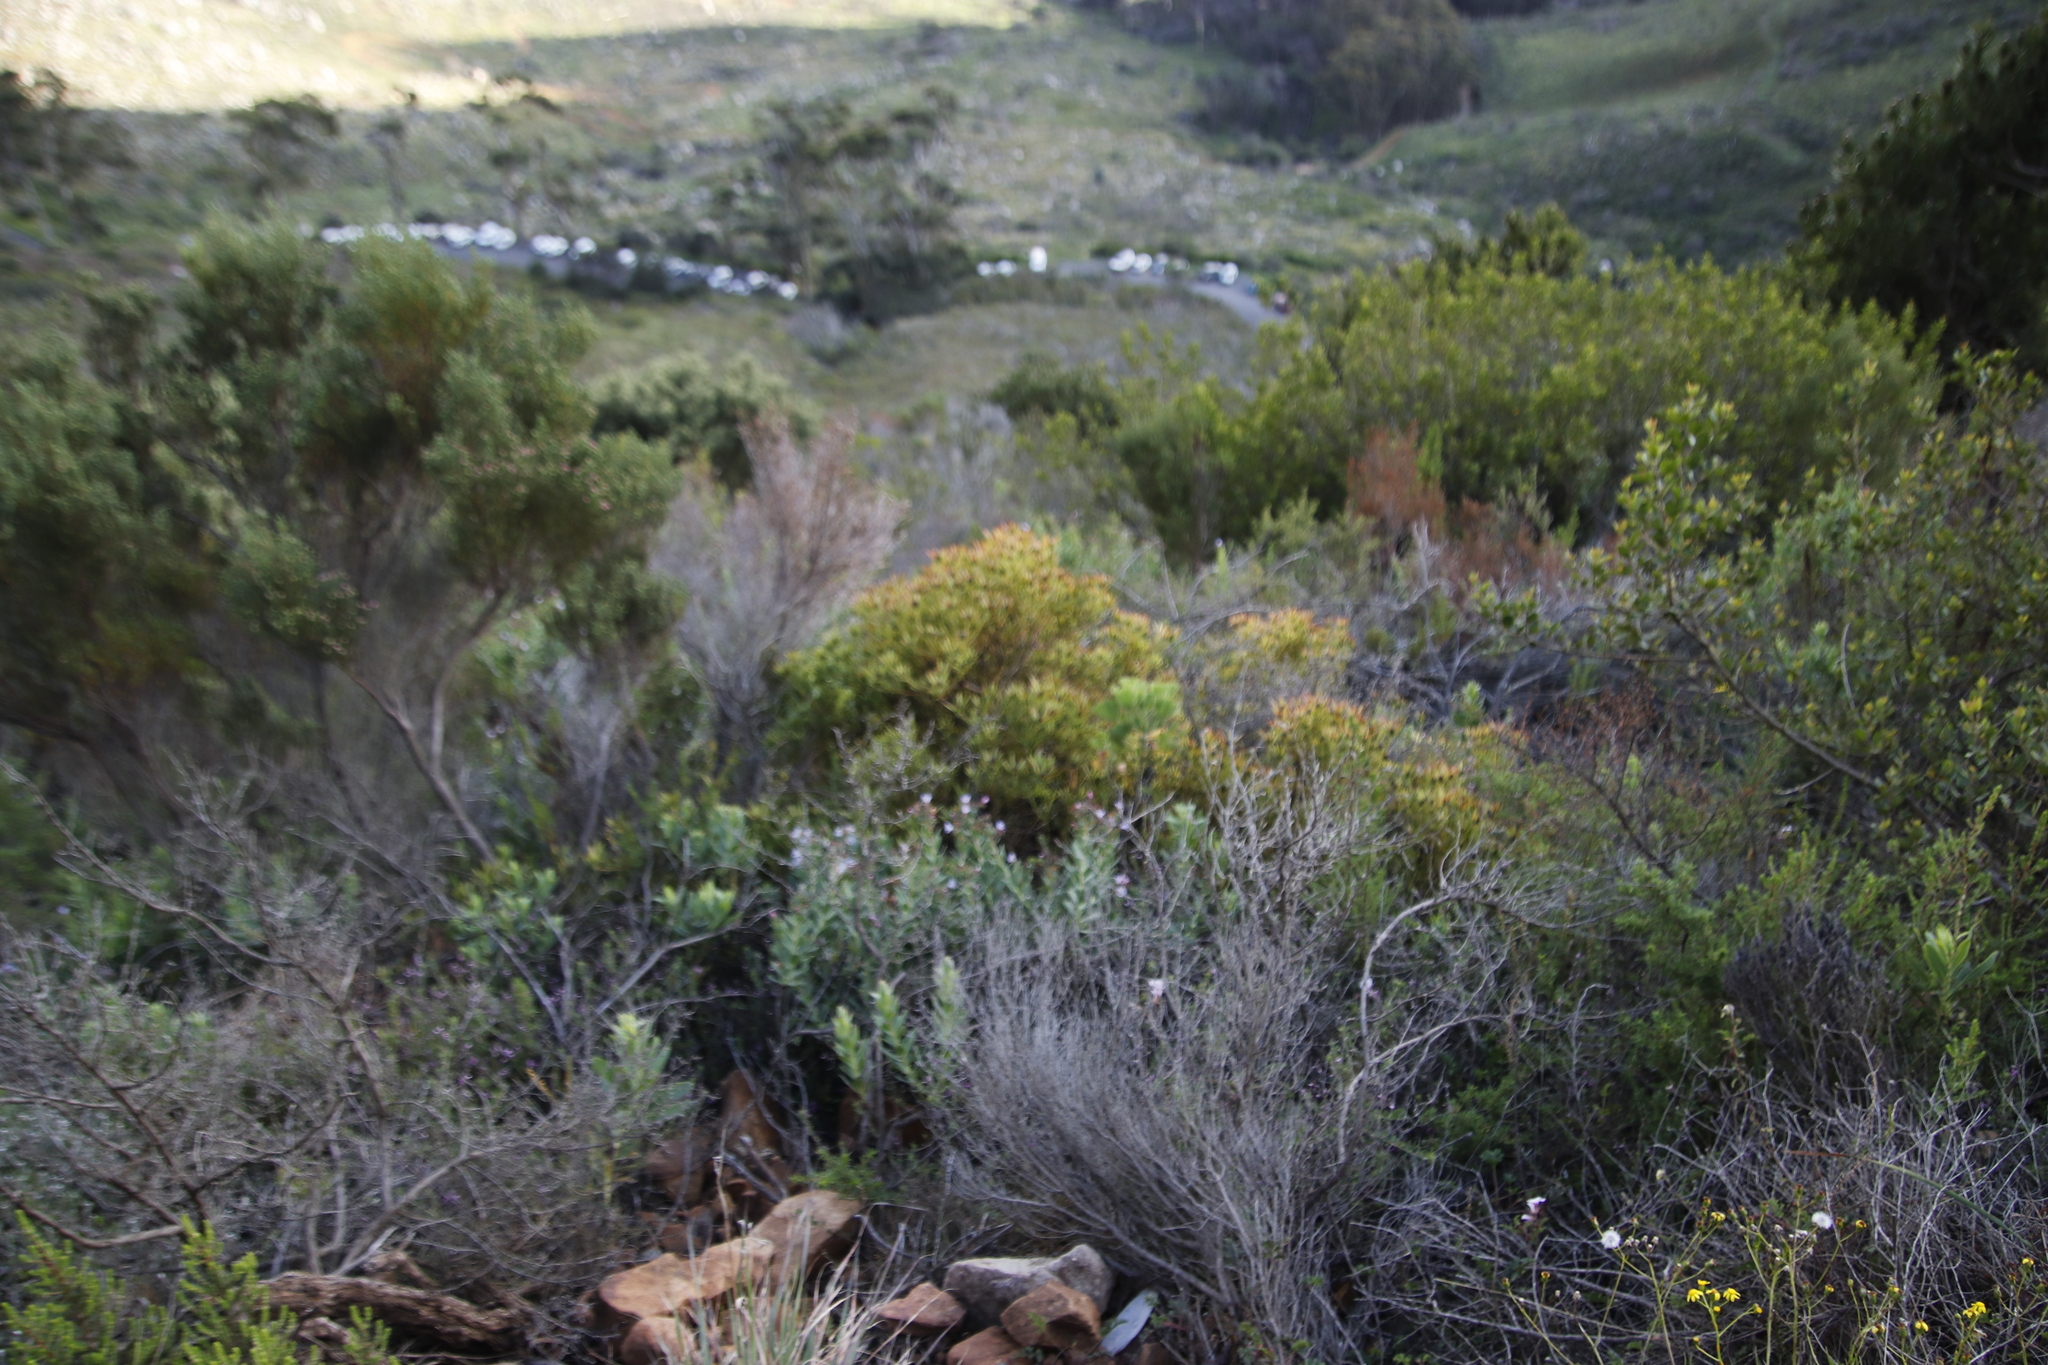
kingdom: Plantae
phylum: Tracheophyta
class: Magnoliopsida
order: Proteales
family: Proteaceae
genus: Leucadendron
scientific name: Leucadendron salignum
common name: Common sunshine conebush
